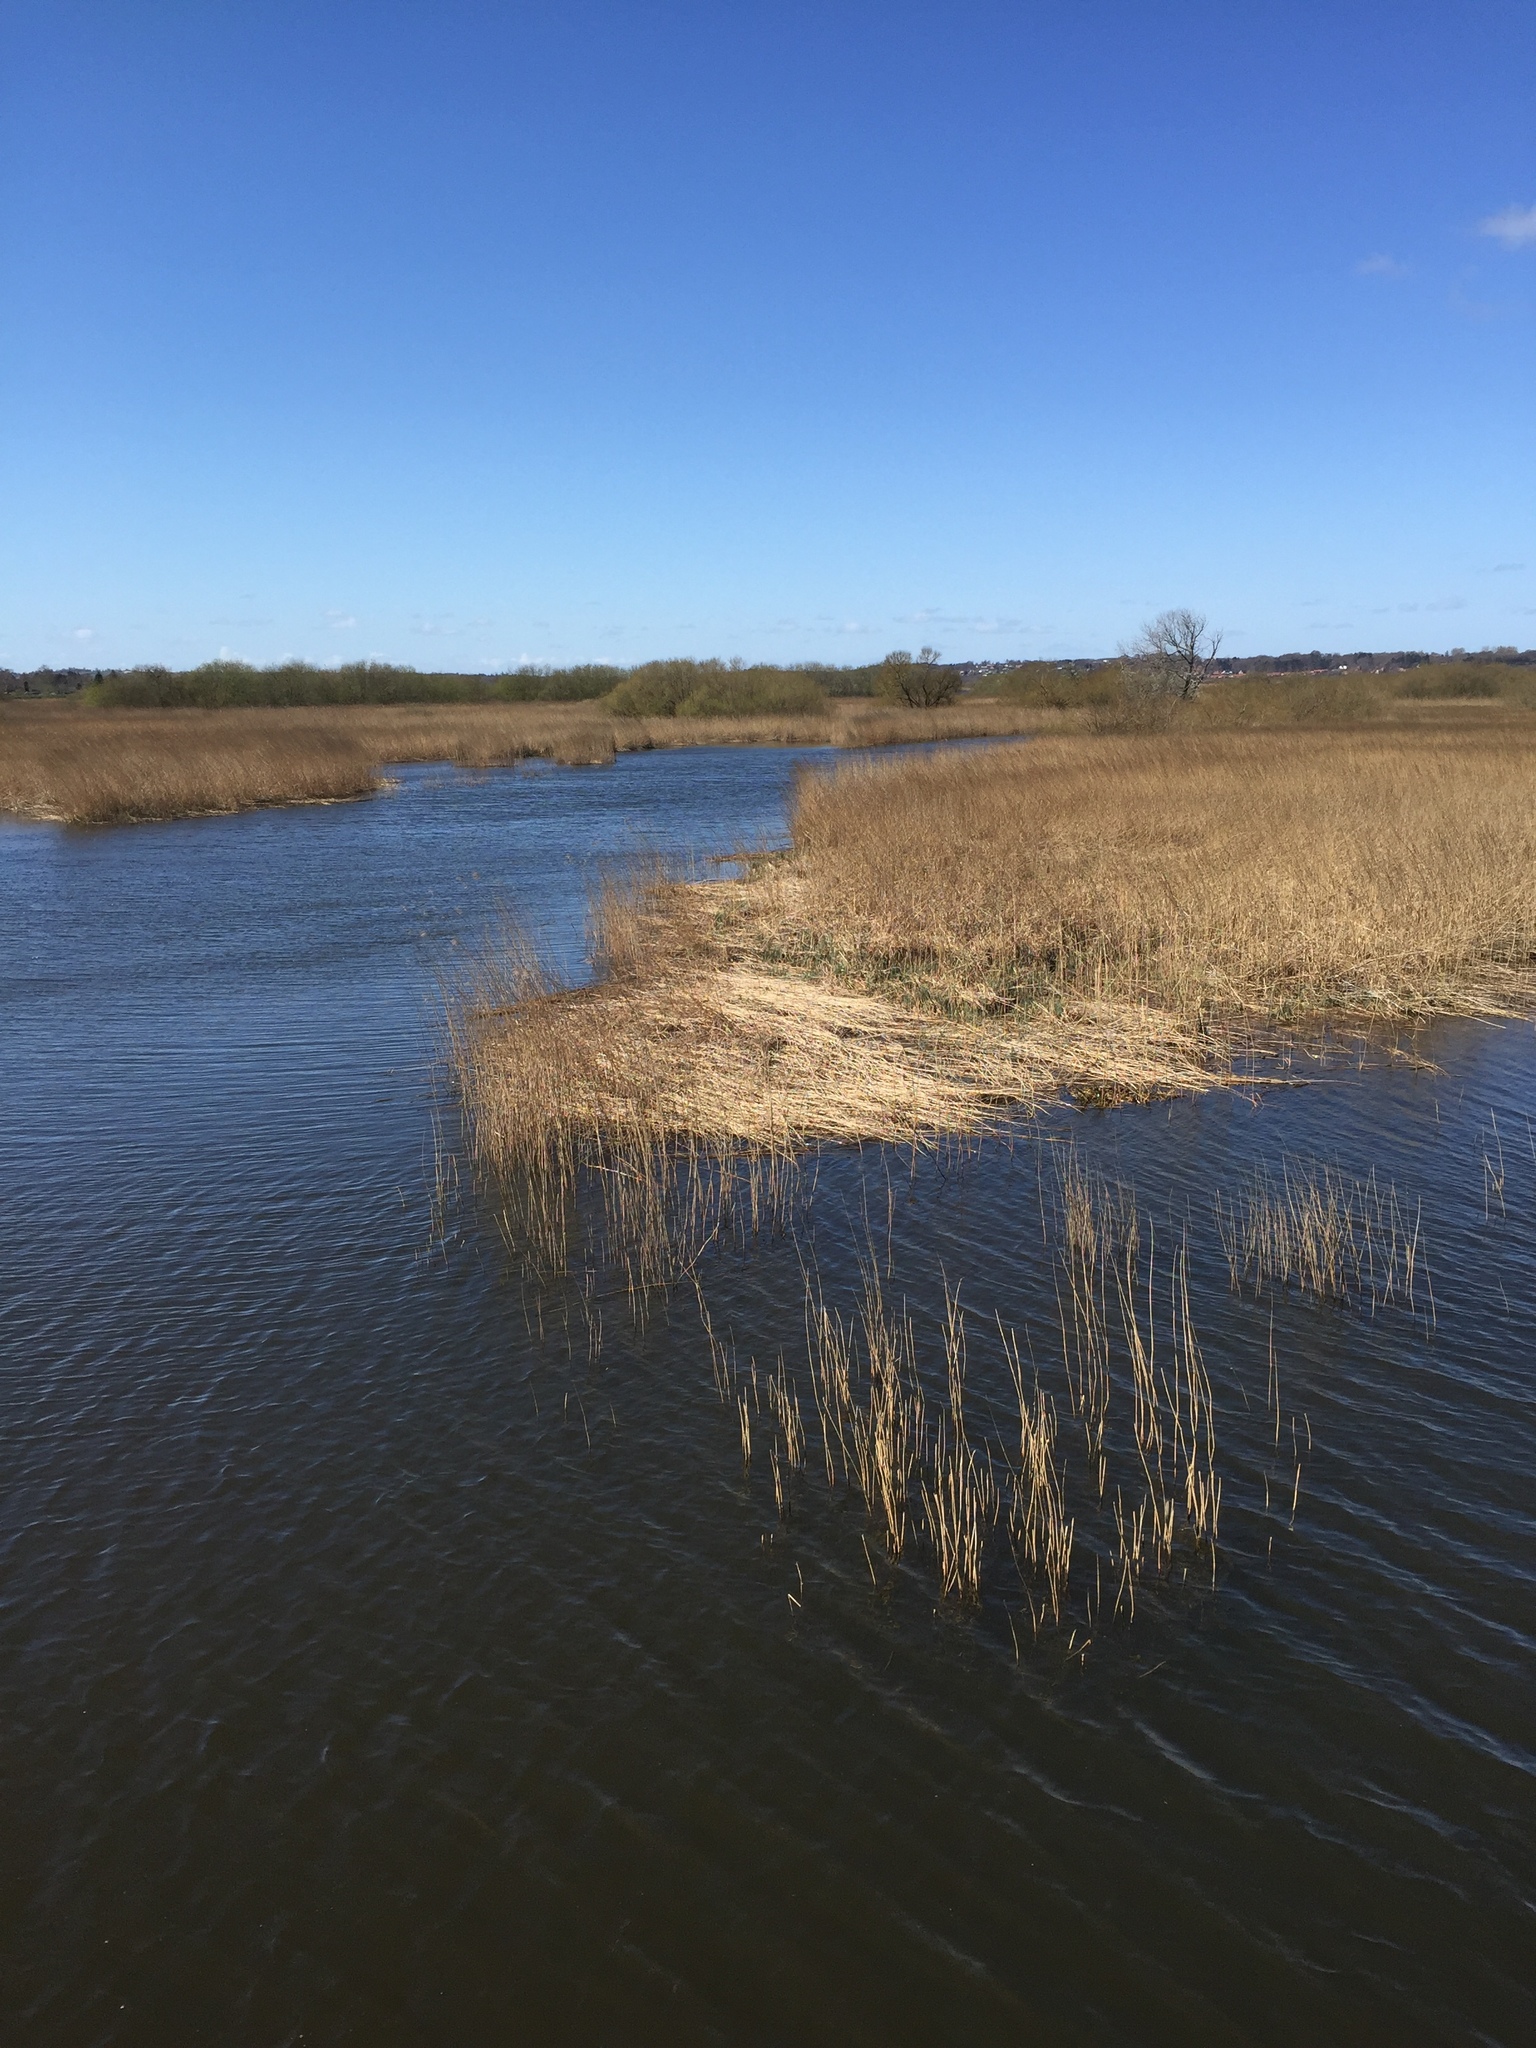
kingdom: Plantae
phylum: Tracheophyta
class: Liliopsida
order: Poales
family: Poaceae
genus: Phragmites
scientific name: Phragmites australis
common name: Common reed
